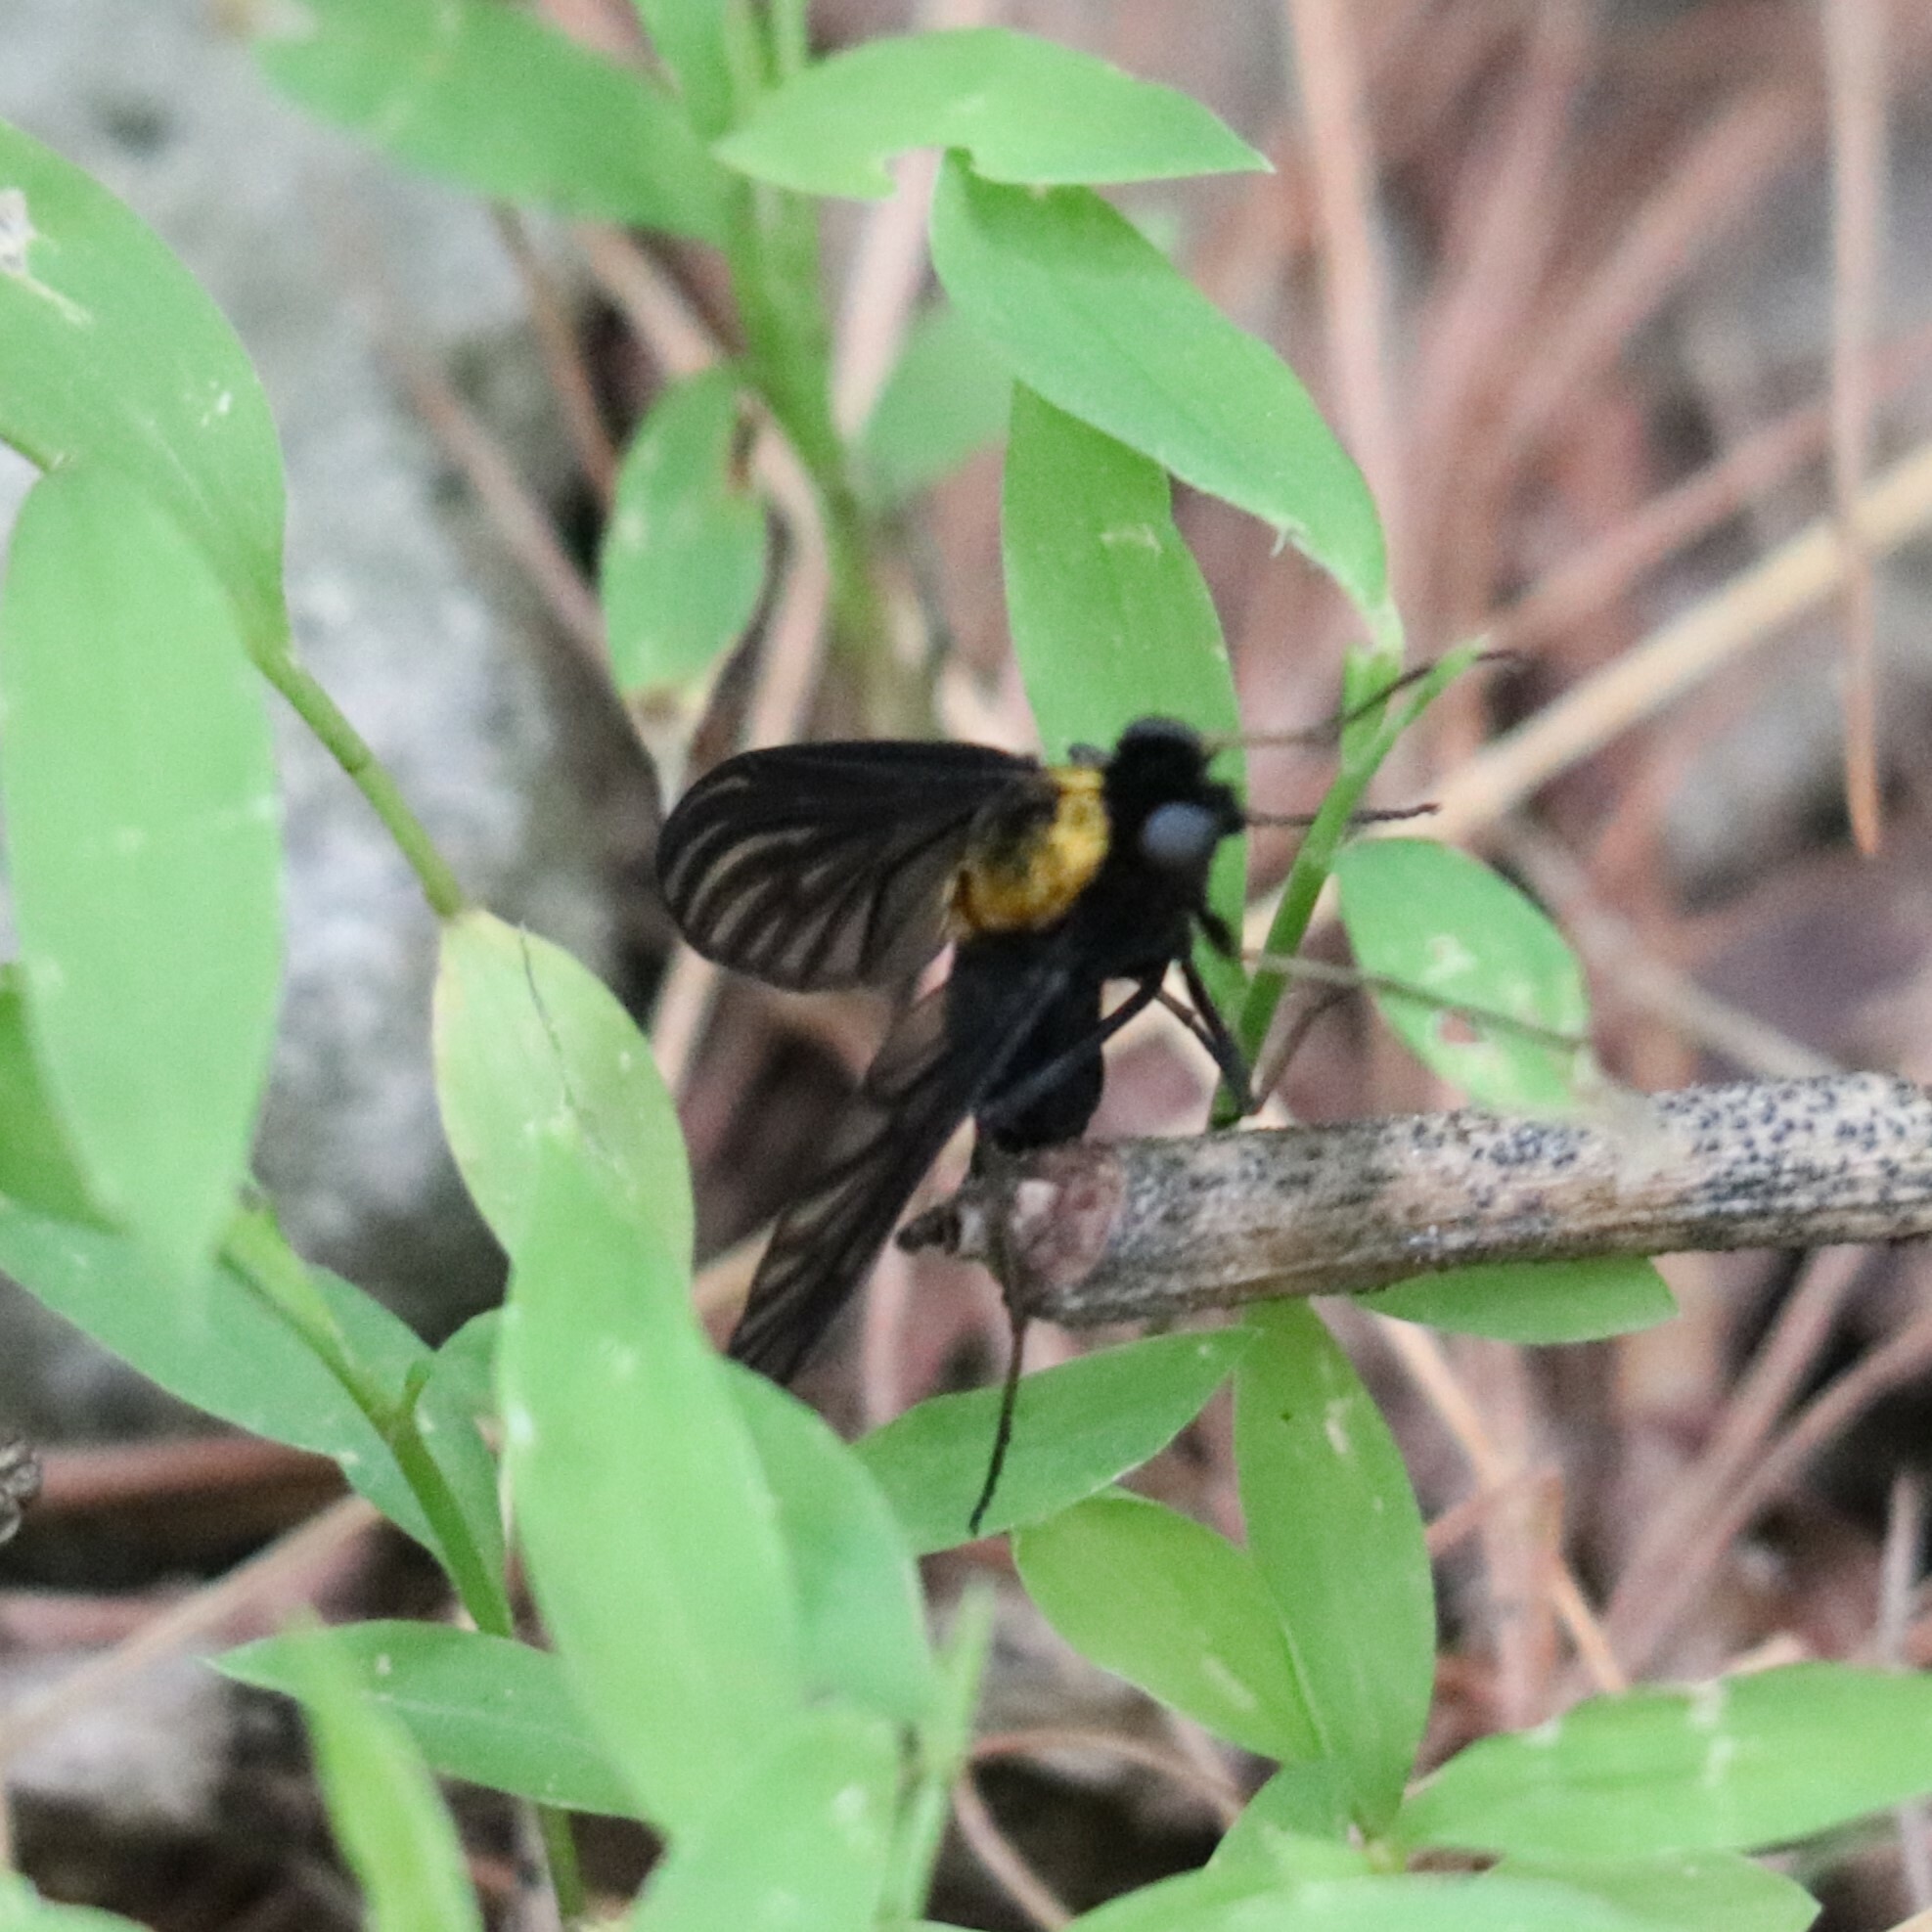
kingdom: Animalia
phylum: Arthropoda
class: Insecta
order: Diptera
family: Rhagionidae
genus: Chrysopilus
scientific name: Chrysopilus thoracicus
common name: Golden-backed snipe fly
